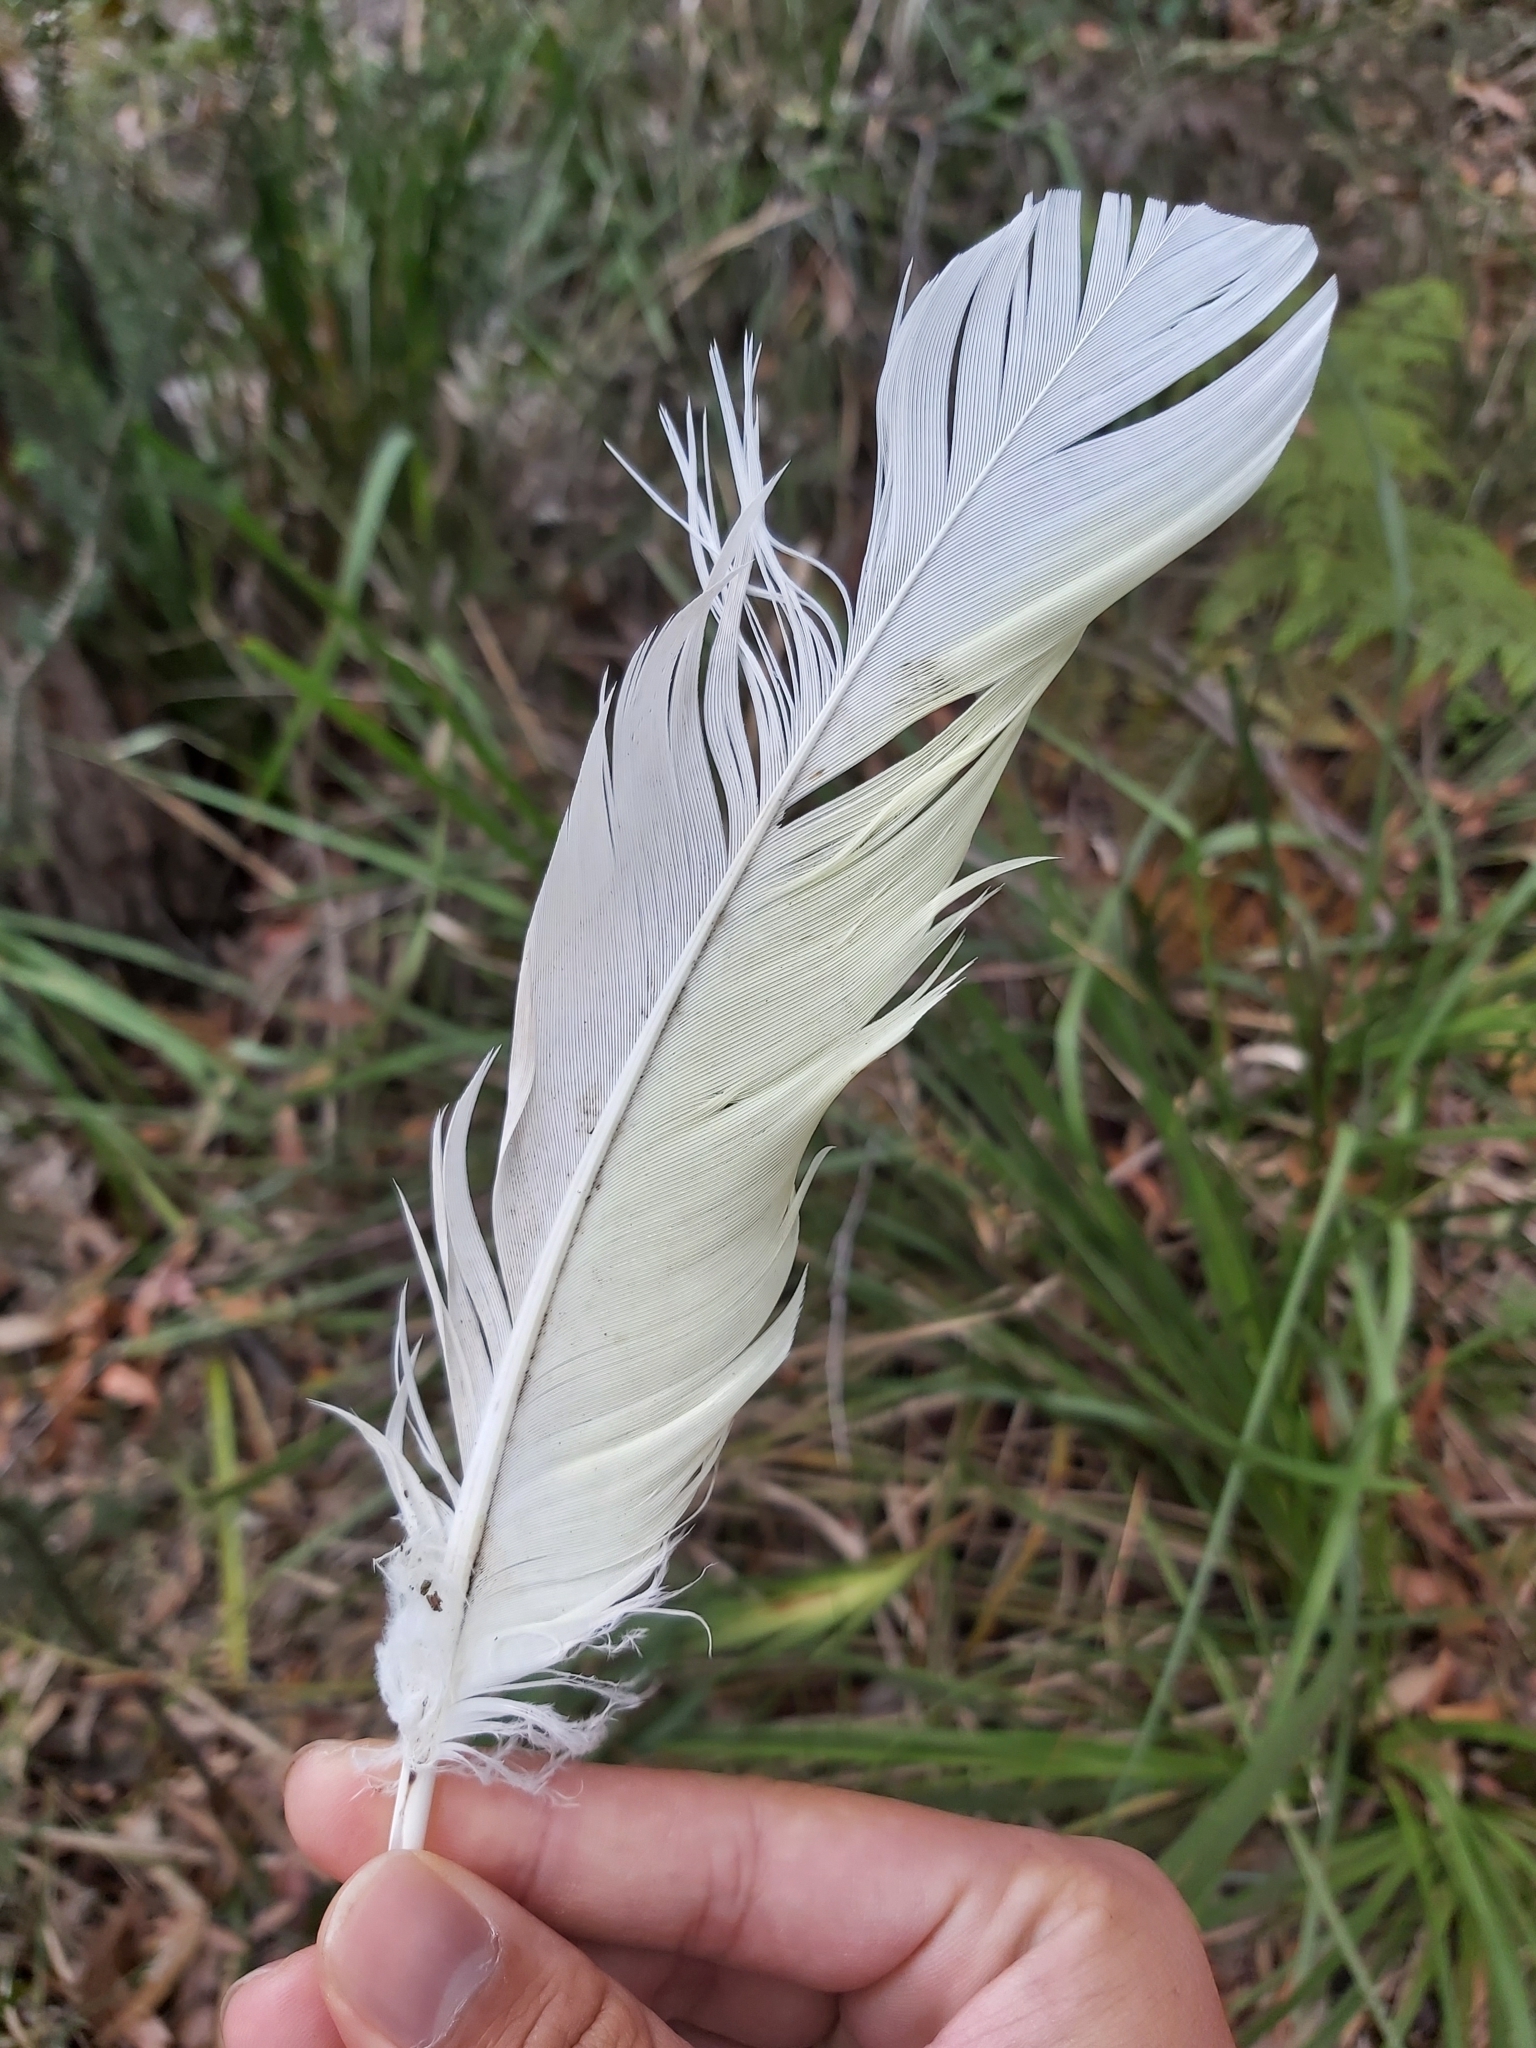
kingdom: Animalia
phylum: Chordata
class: Aves
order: Psittaciformes
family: Psittacidae
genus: Cacatua
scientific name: Cacatua galerita
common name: Sulphur-crested cockatoo
